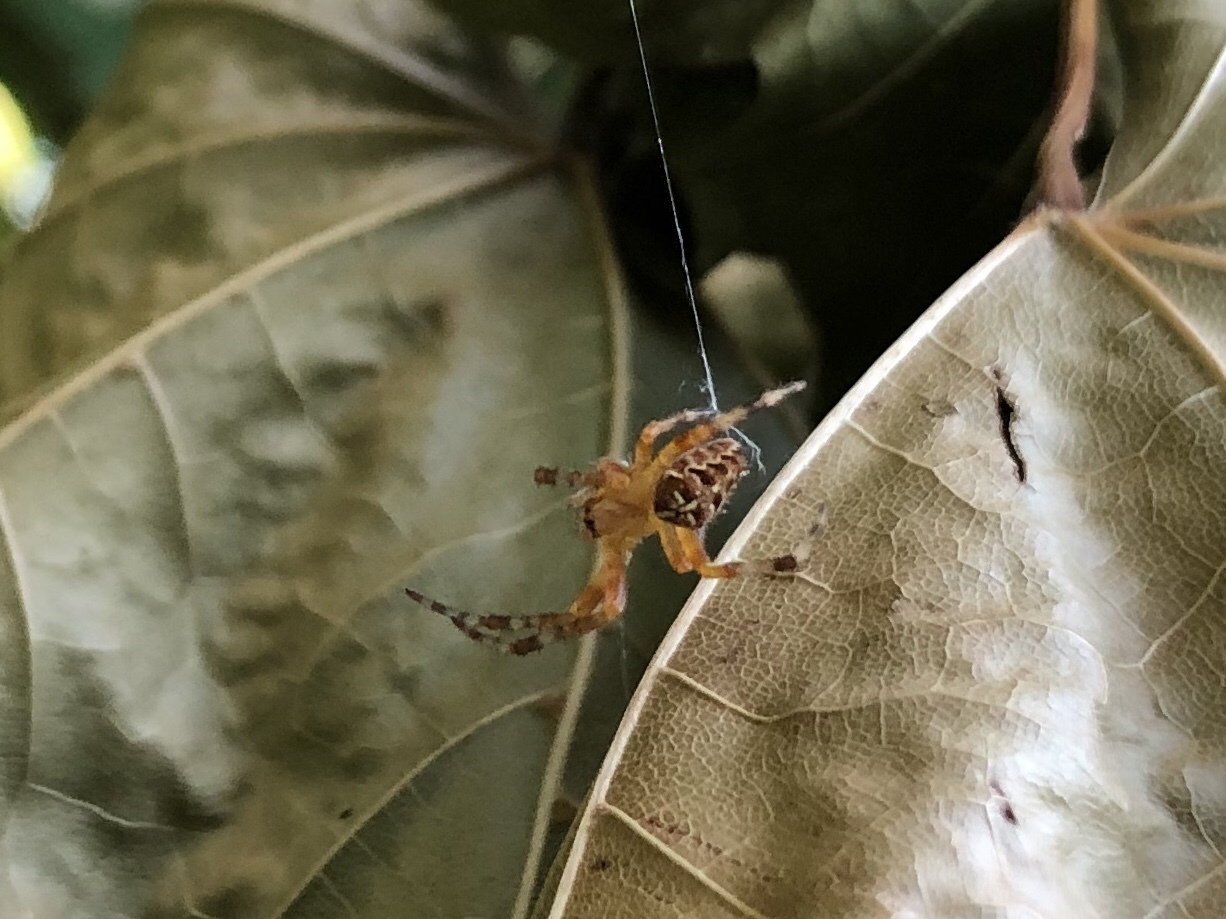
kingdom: Animalia
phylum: Arthropoda
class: Arachnida
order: Araneae
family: Araneidae
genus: Araneus
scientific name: Araneus diadematus
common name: Cross orbweaver
